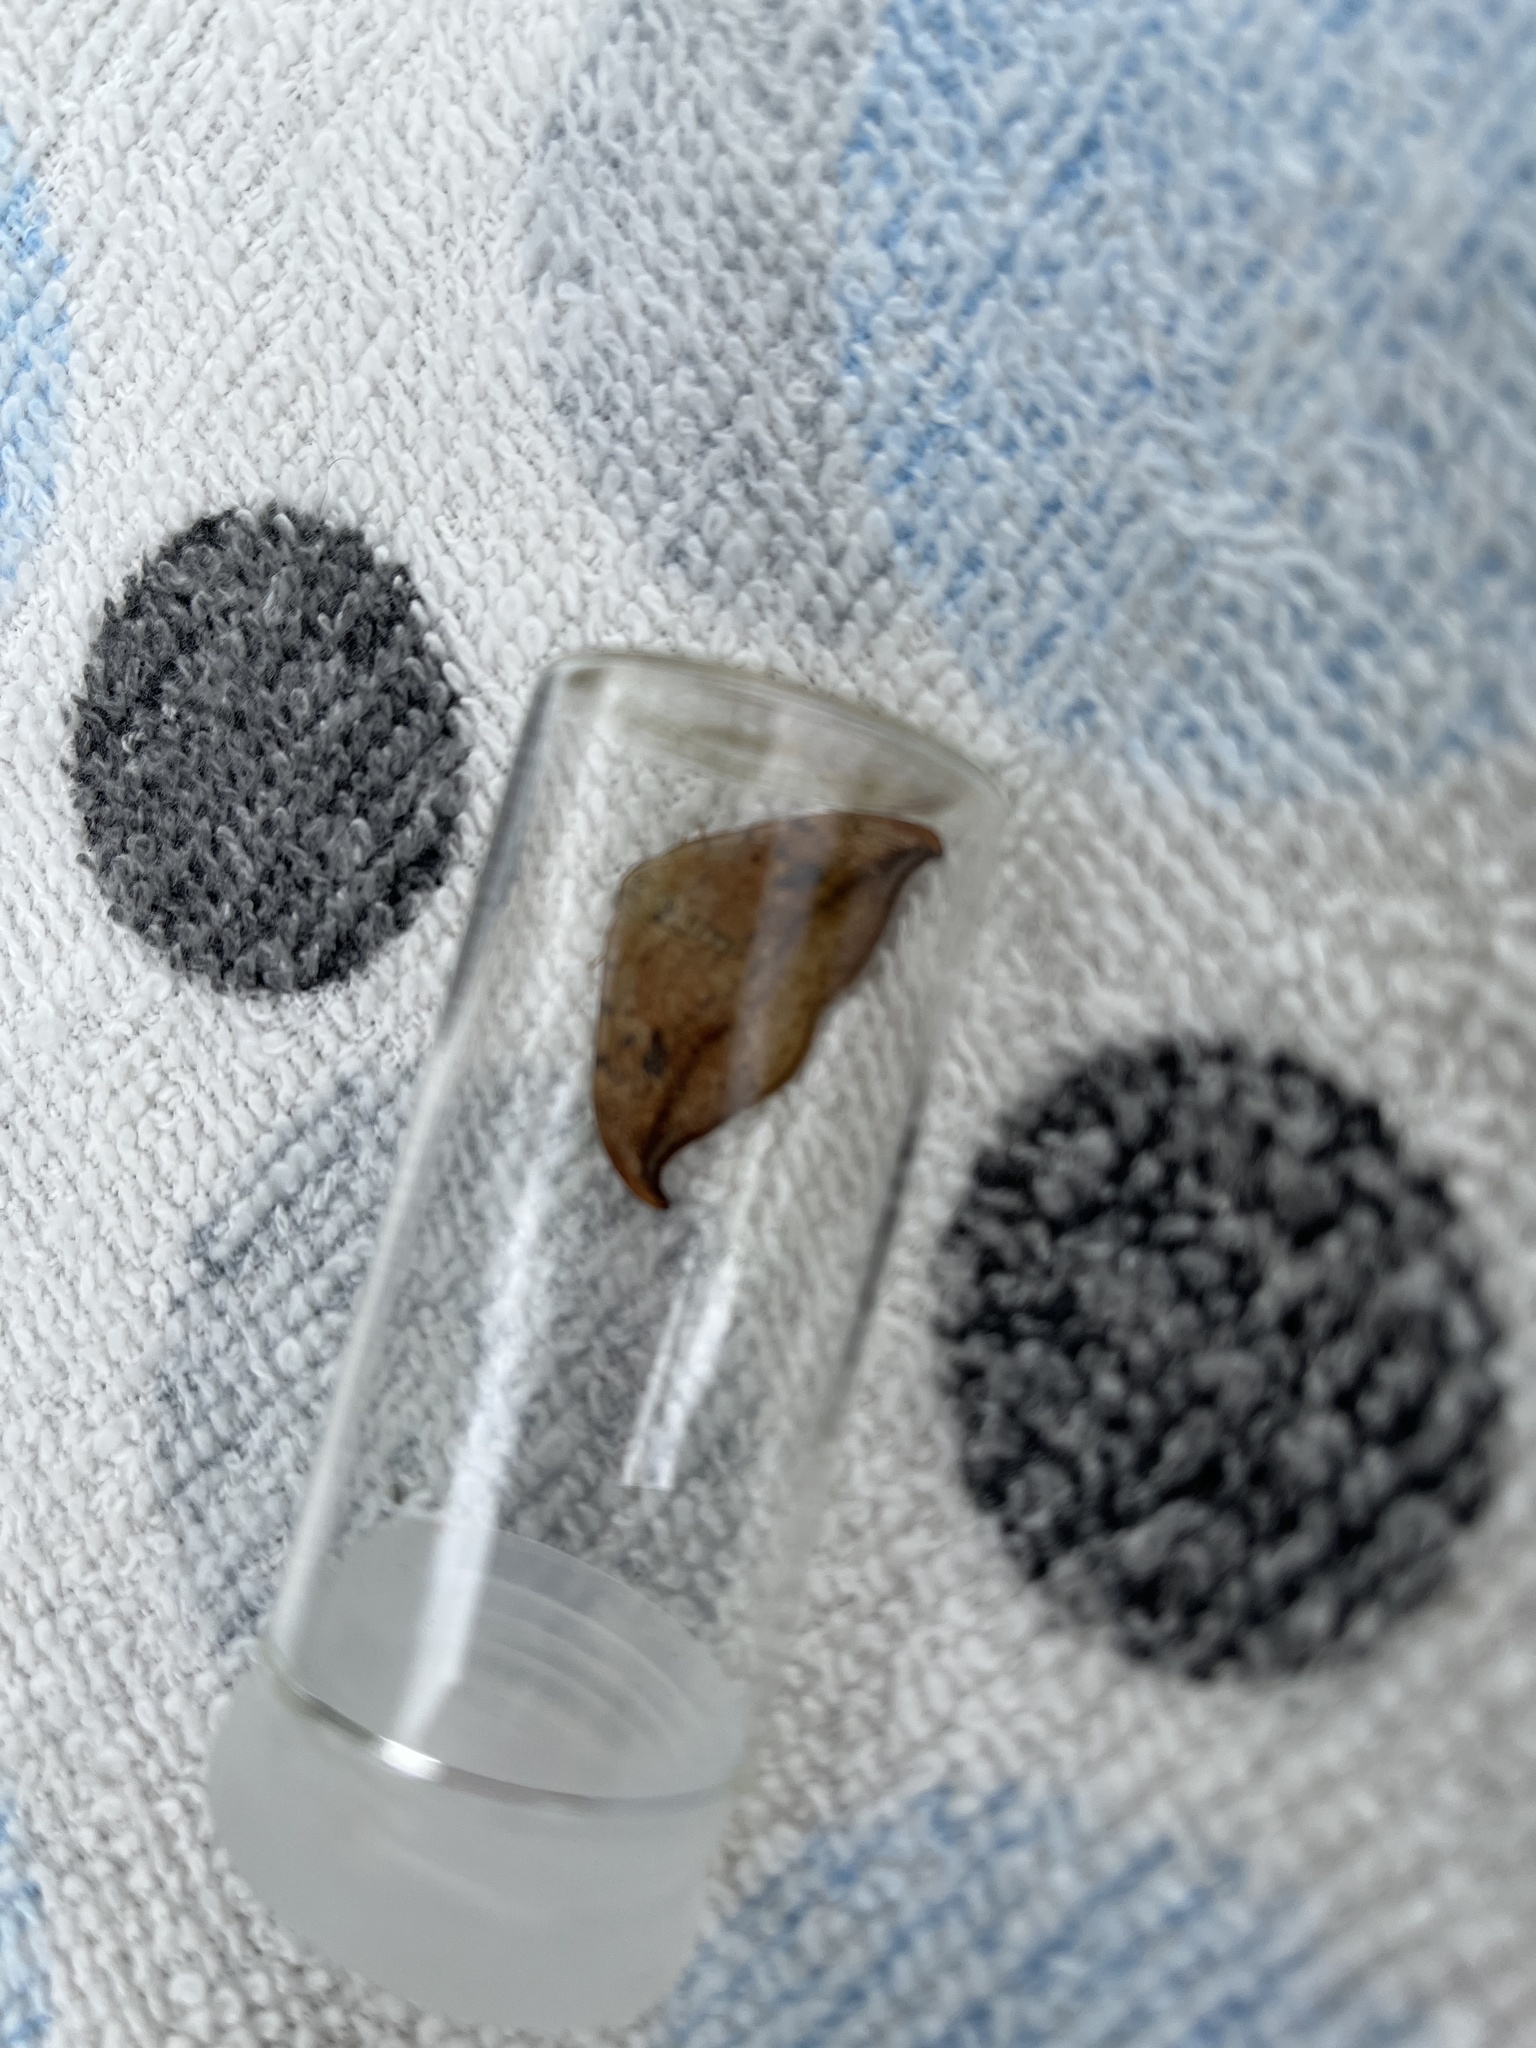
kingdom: Animalia
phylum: Arthropoda
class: Insecta
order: Lepidoptera
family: Drepanidae
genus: Drepana
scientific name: Drepana falcataria
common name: Pebble hook-tip
